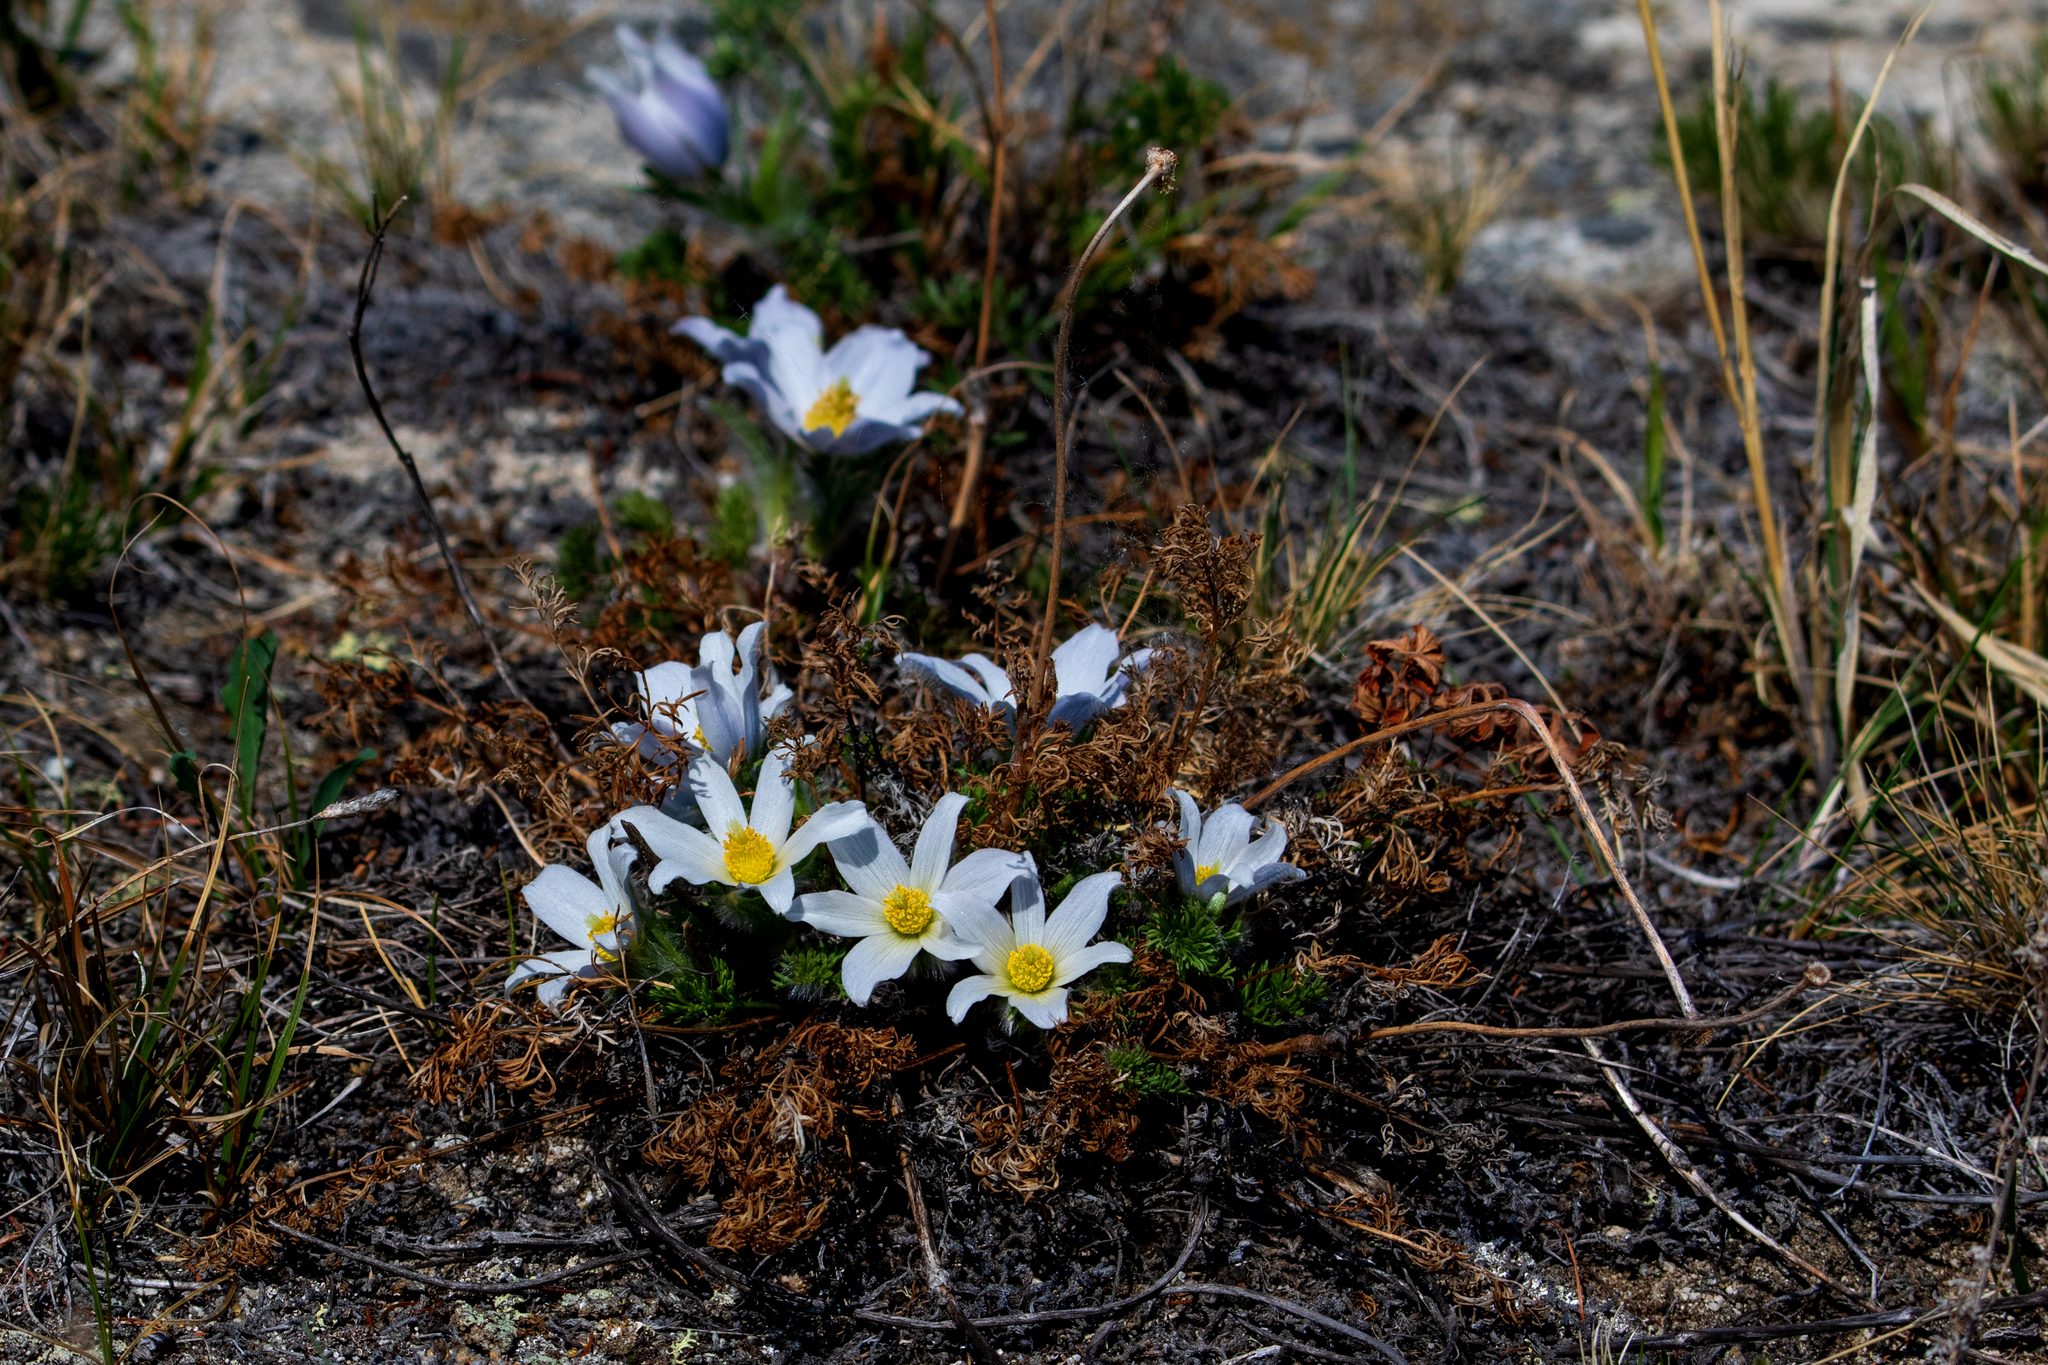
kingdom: Plantae
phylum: Tracheophyta
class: Magnoliopsida
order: Ranunculales
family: Ranunculaceae
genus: Pulsatilla
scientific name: Pulsatilla tenuiloba
